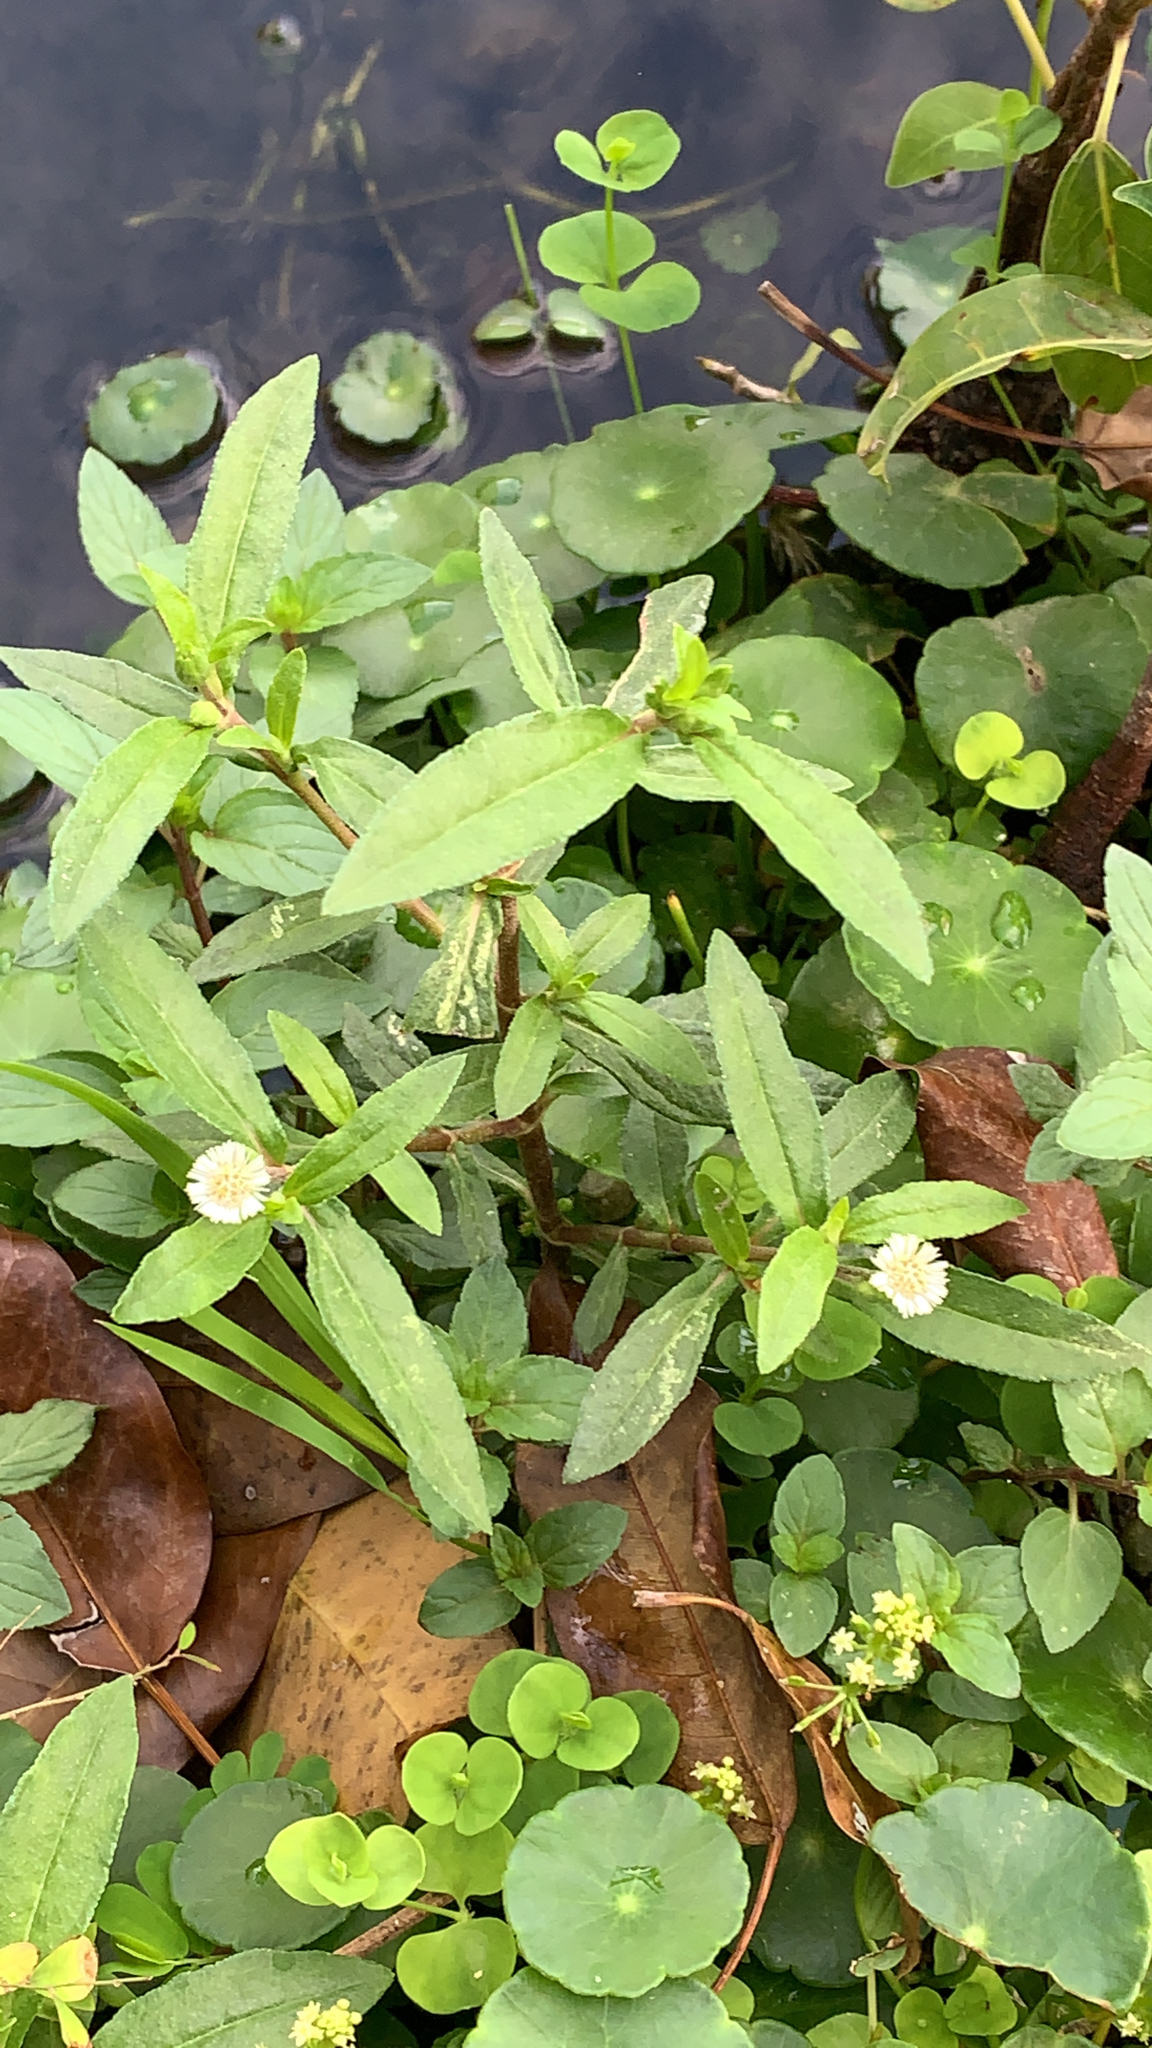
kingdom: Plantae
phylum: Tracheophyta
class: Magnoliopsida
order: Asterales
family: Asteraceae
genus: Eclipta
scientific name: Eclipta prostrata
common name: False daisy
